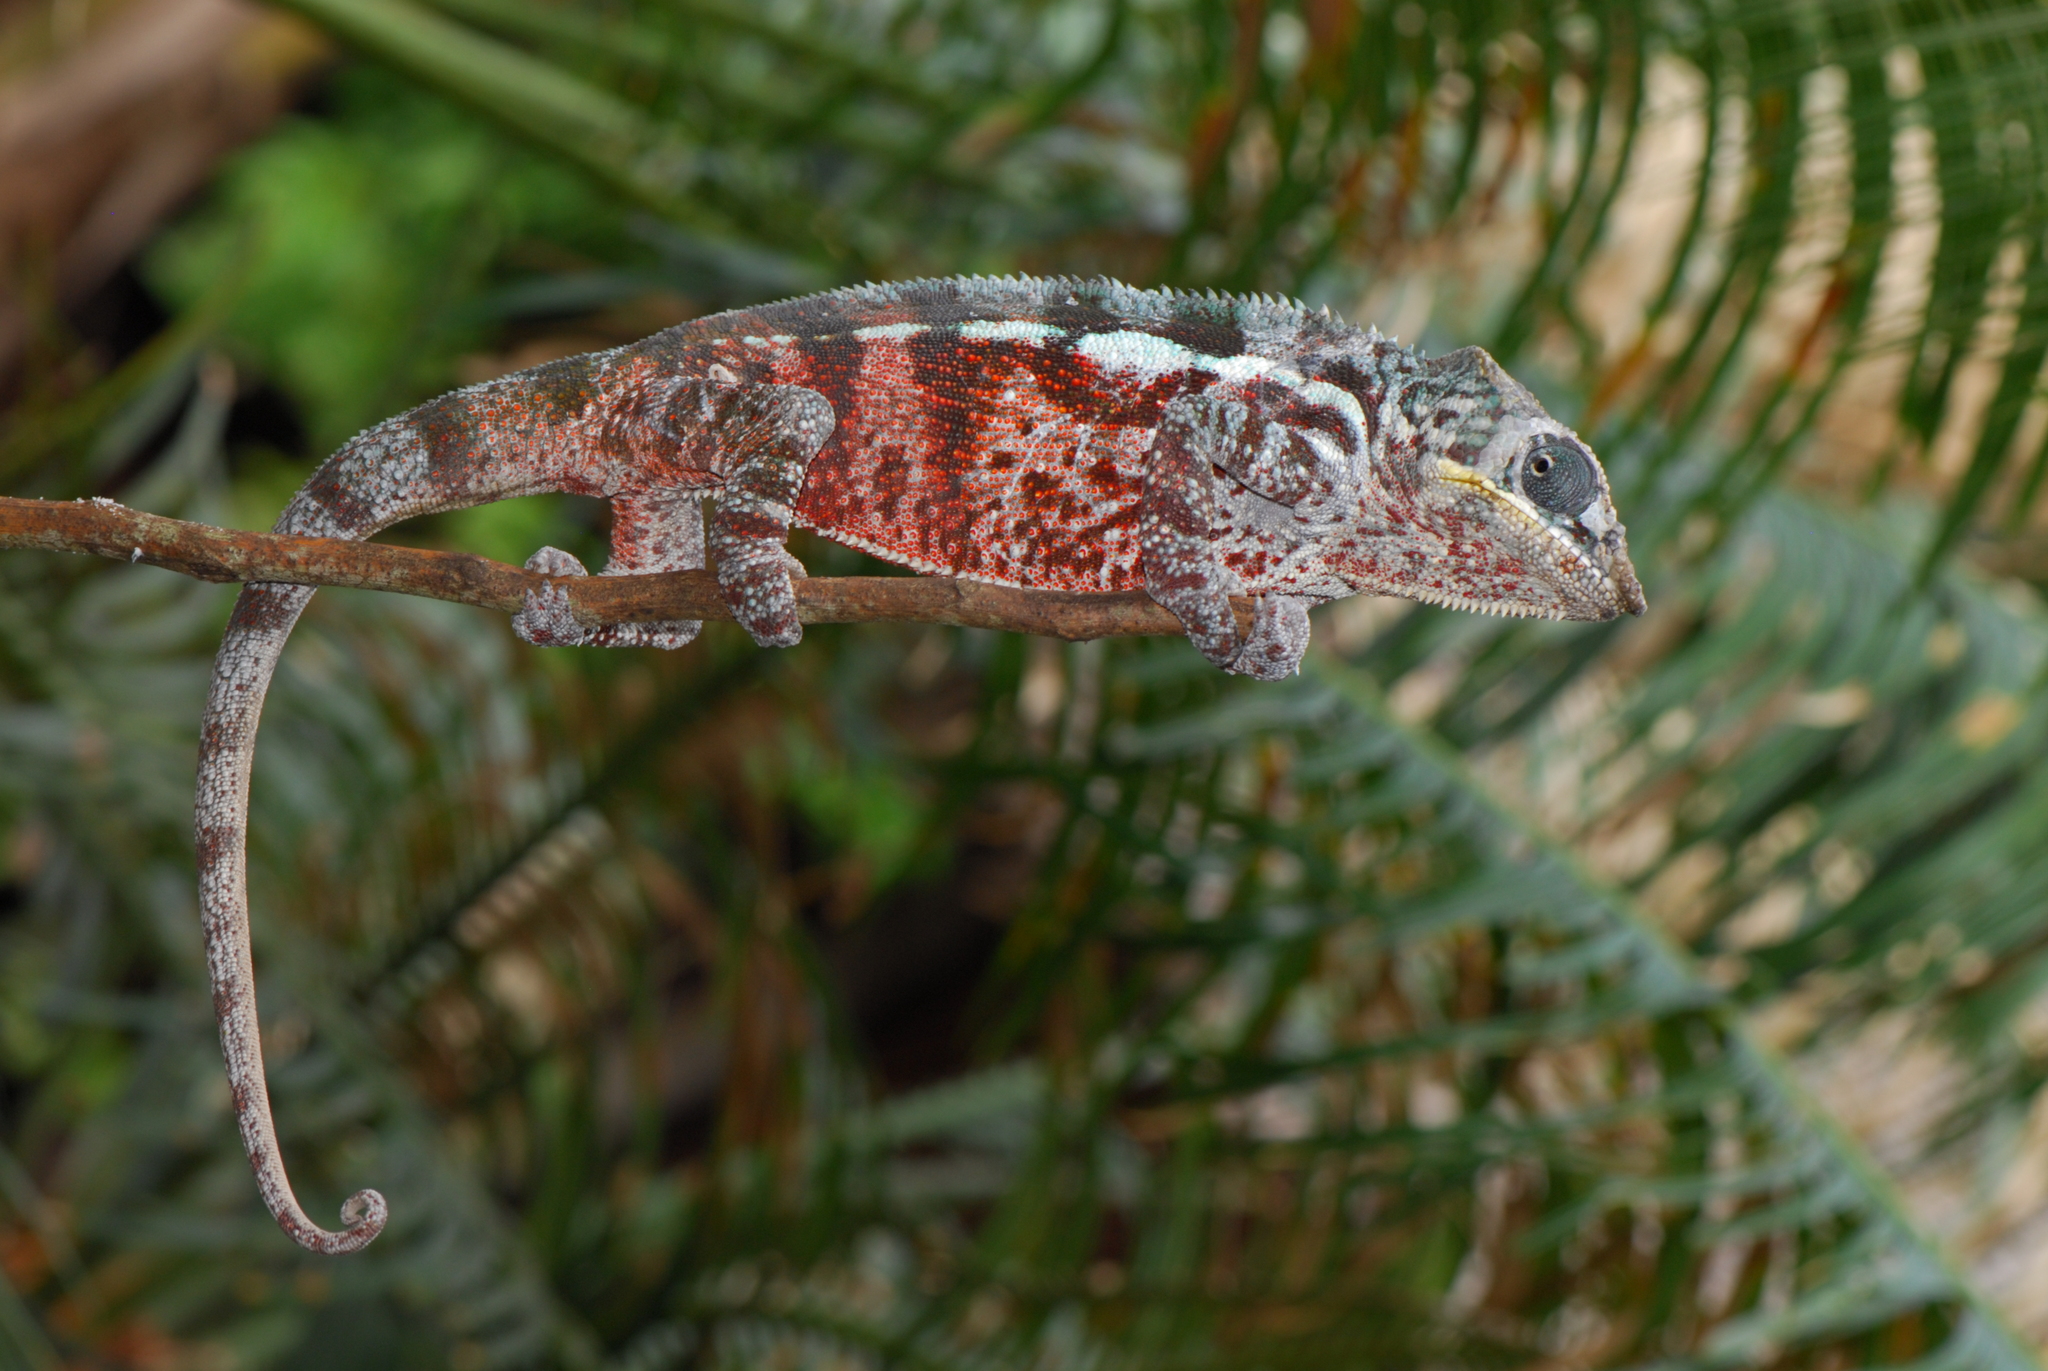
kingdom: Animalia
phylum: Chordata
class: Squamata
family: Chamaeleonidae
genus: Furcifer
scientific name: Furcifer pardalis
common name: Panther chameleon
